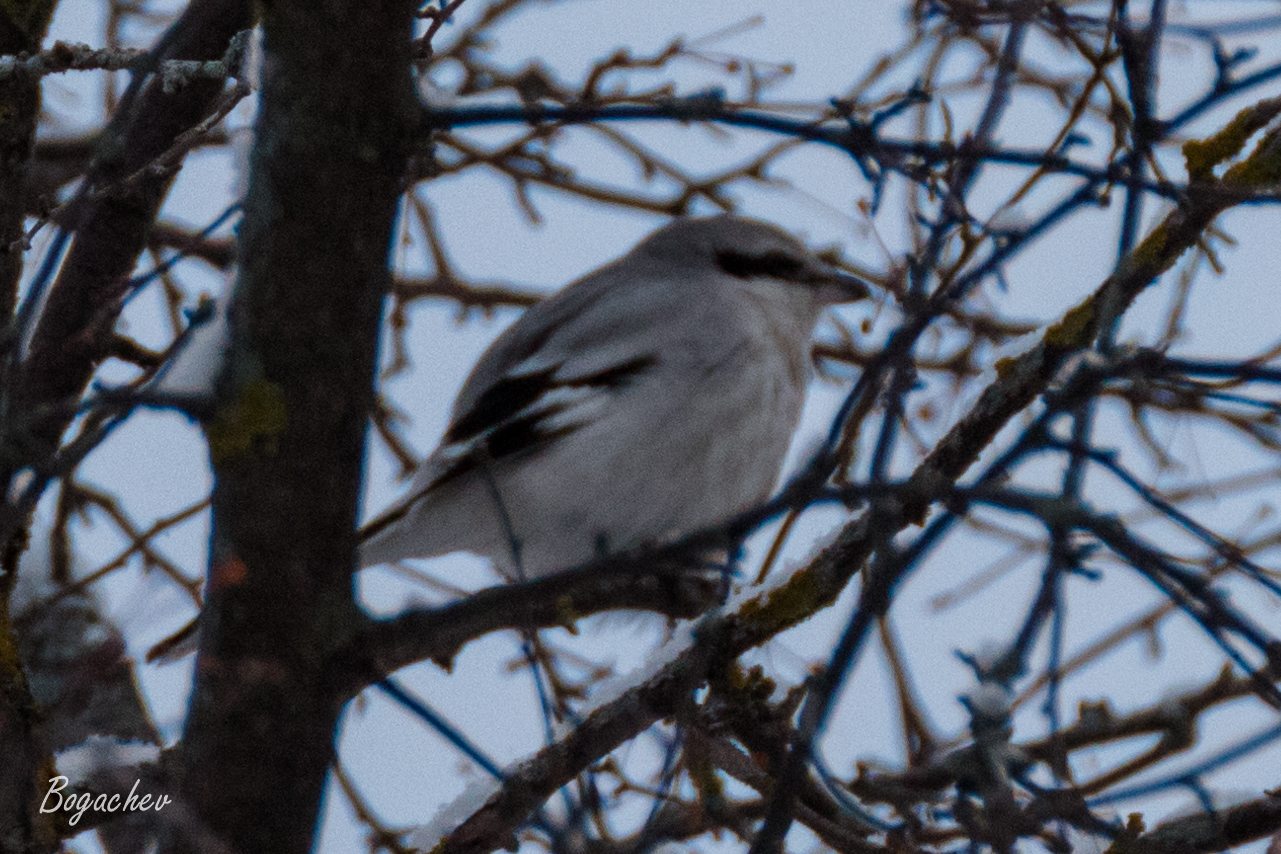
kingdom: Animalia
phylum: Chordata
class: Aves
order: Passeriformes
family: Laniidae
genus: Lanius
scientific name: Lanius excubitor
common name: Great grey shrike
